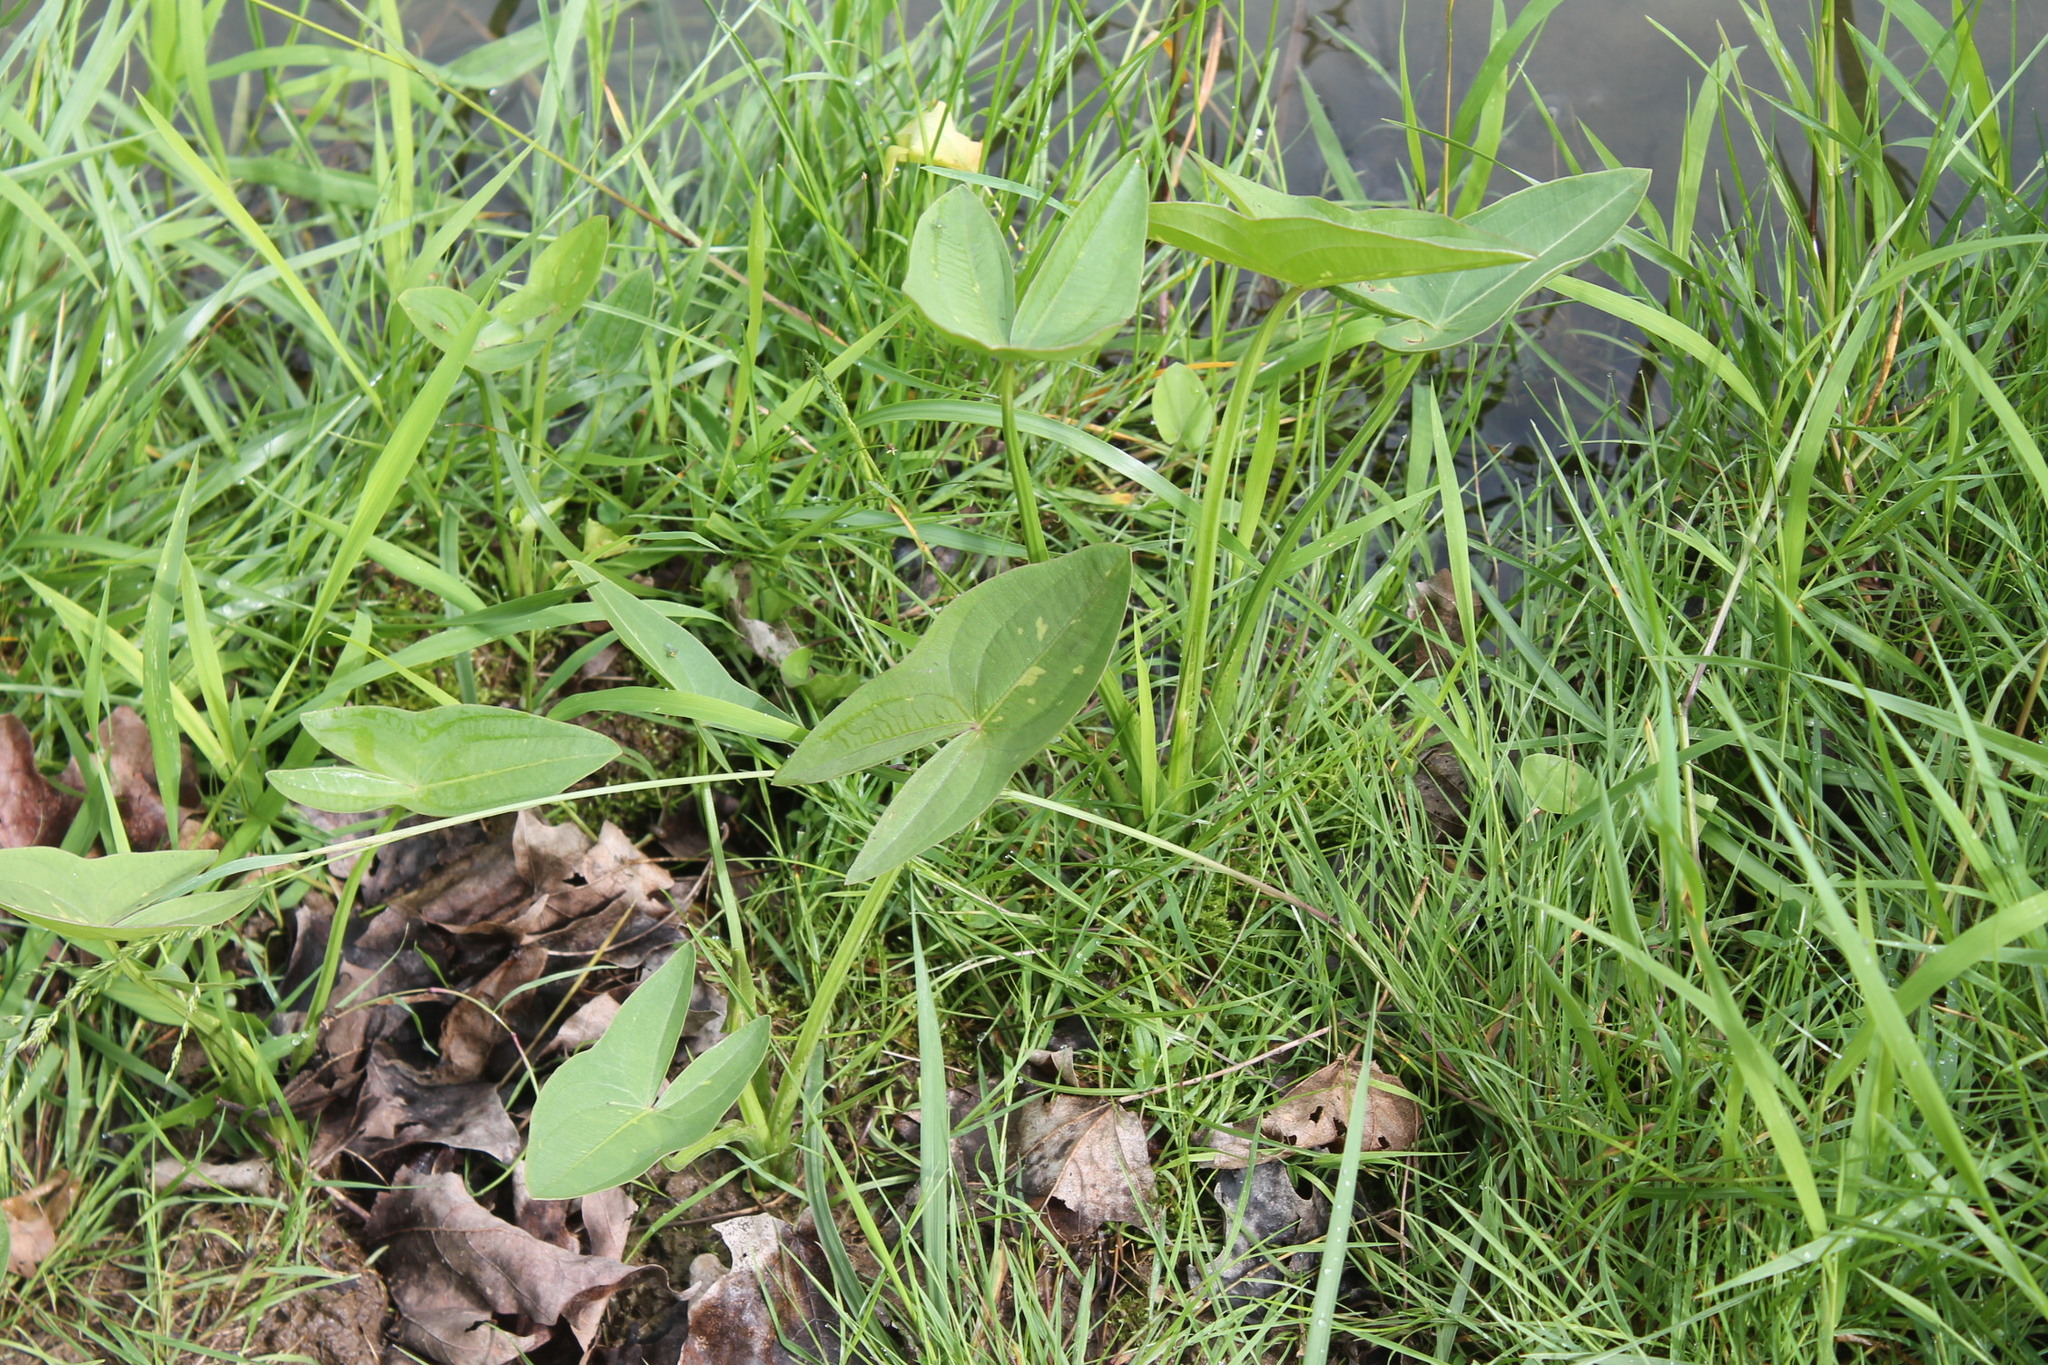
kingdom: Plantae
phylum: Tracheophyta
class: Liliopsida
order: Alismatales
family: Alismataceae
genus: Sagittaria
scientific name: Sagittaria latifolia
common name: Duck-potato
